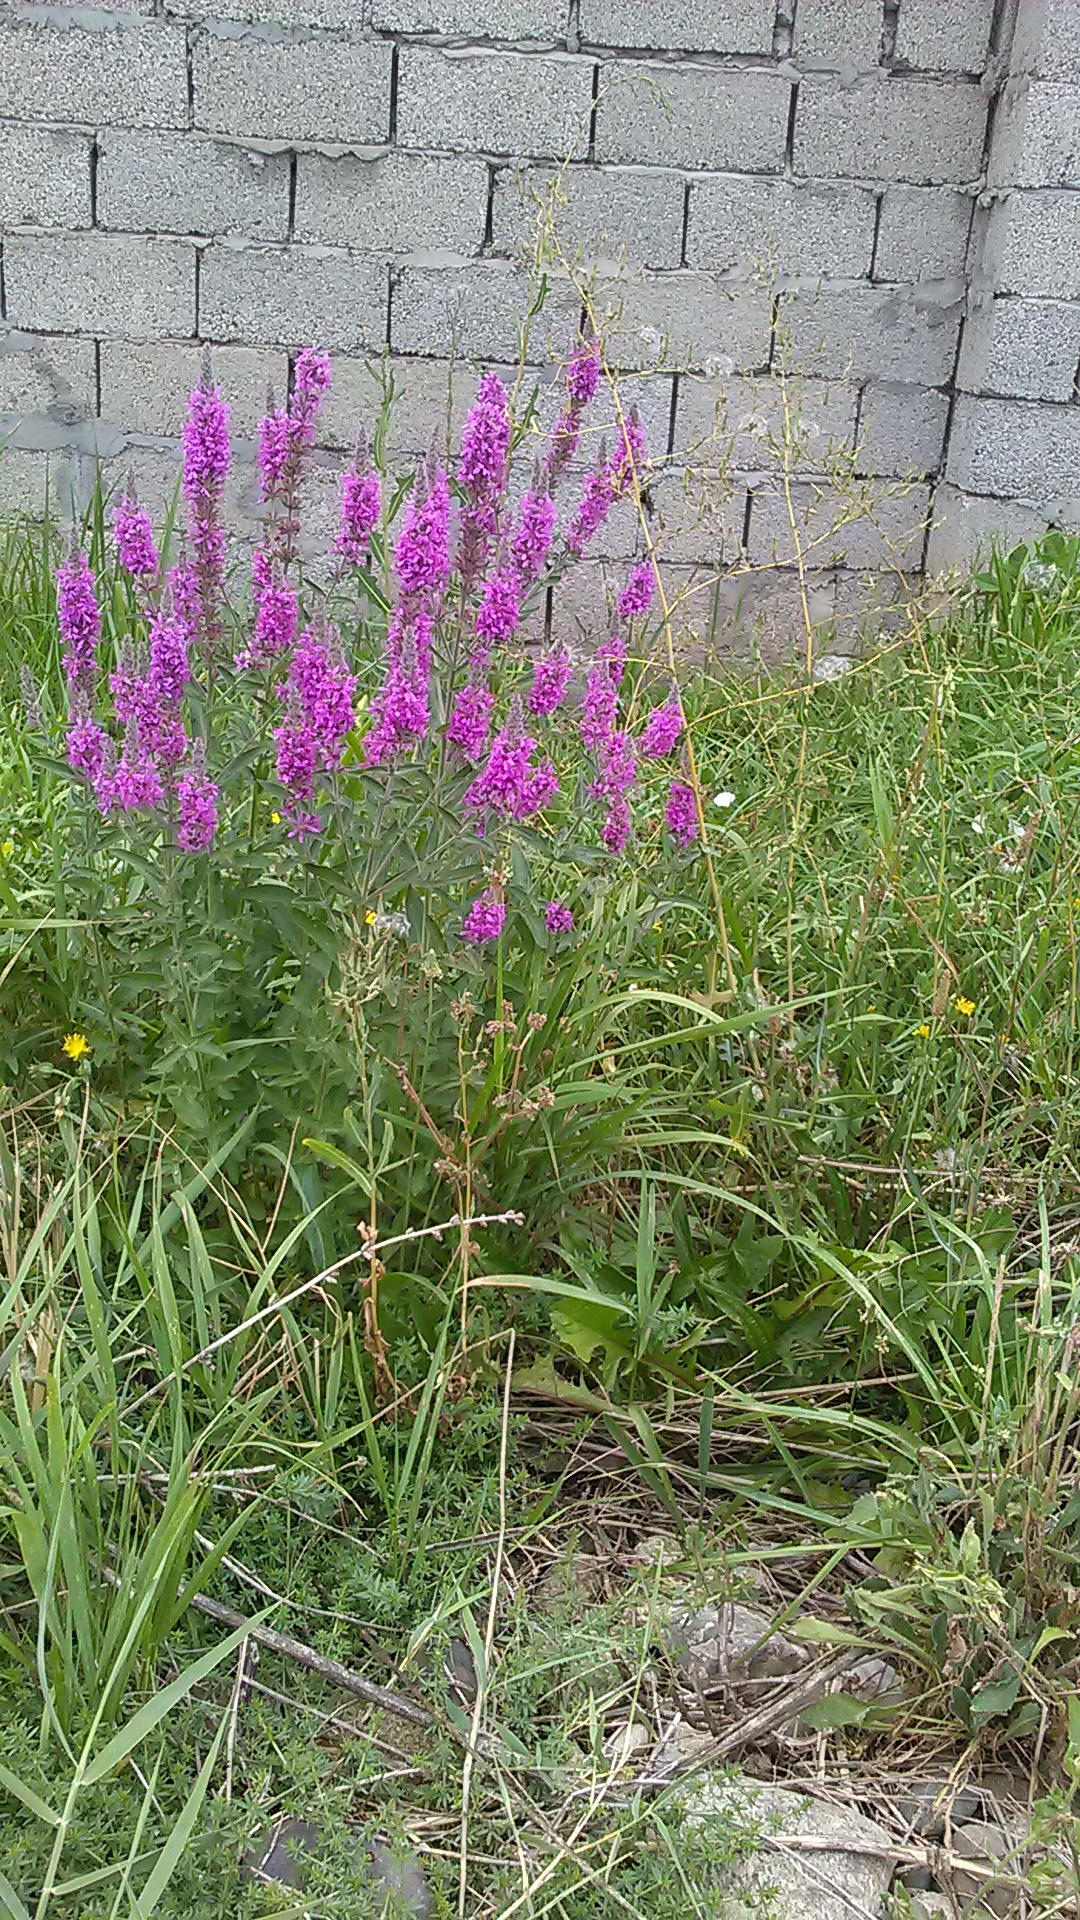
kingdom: Plantae
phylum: Tracheophyta
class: Magnoliopsida
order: Myrtales
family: Lythraceae
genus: Lythrum
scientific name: Lythrum salicaria
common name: Purple loosestrife
